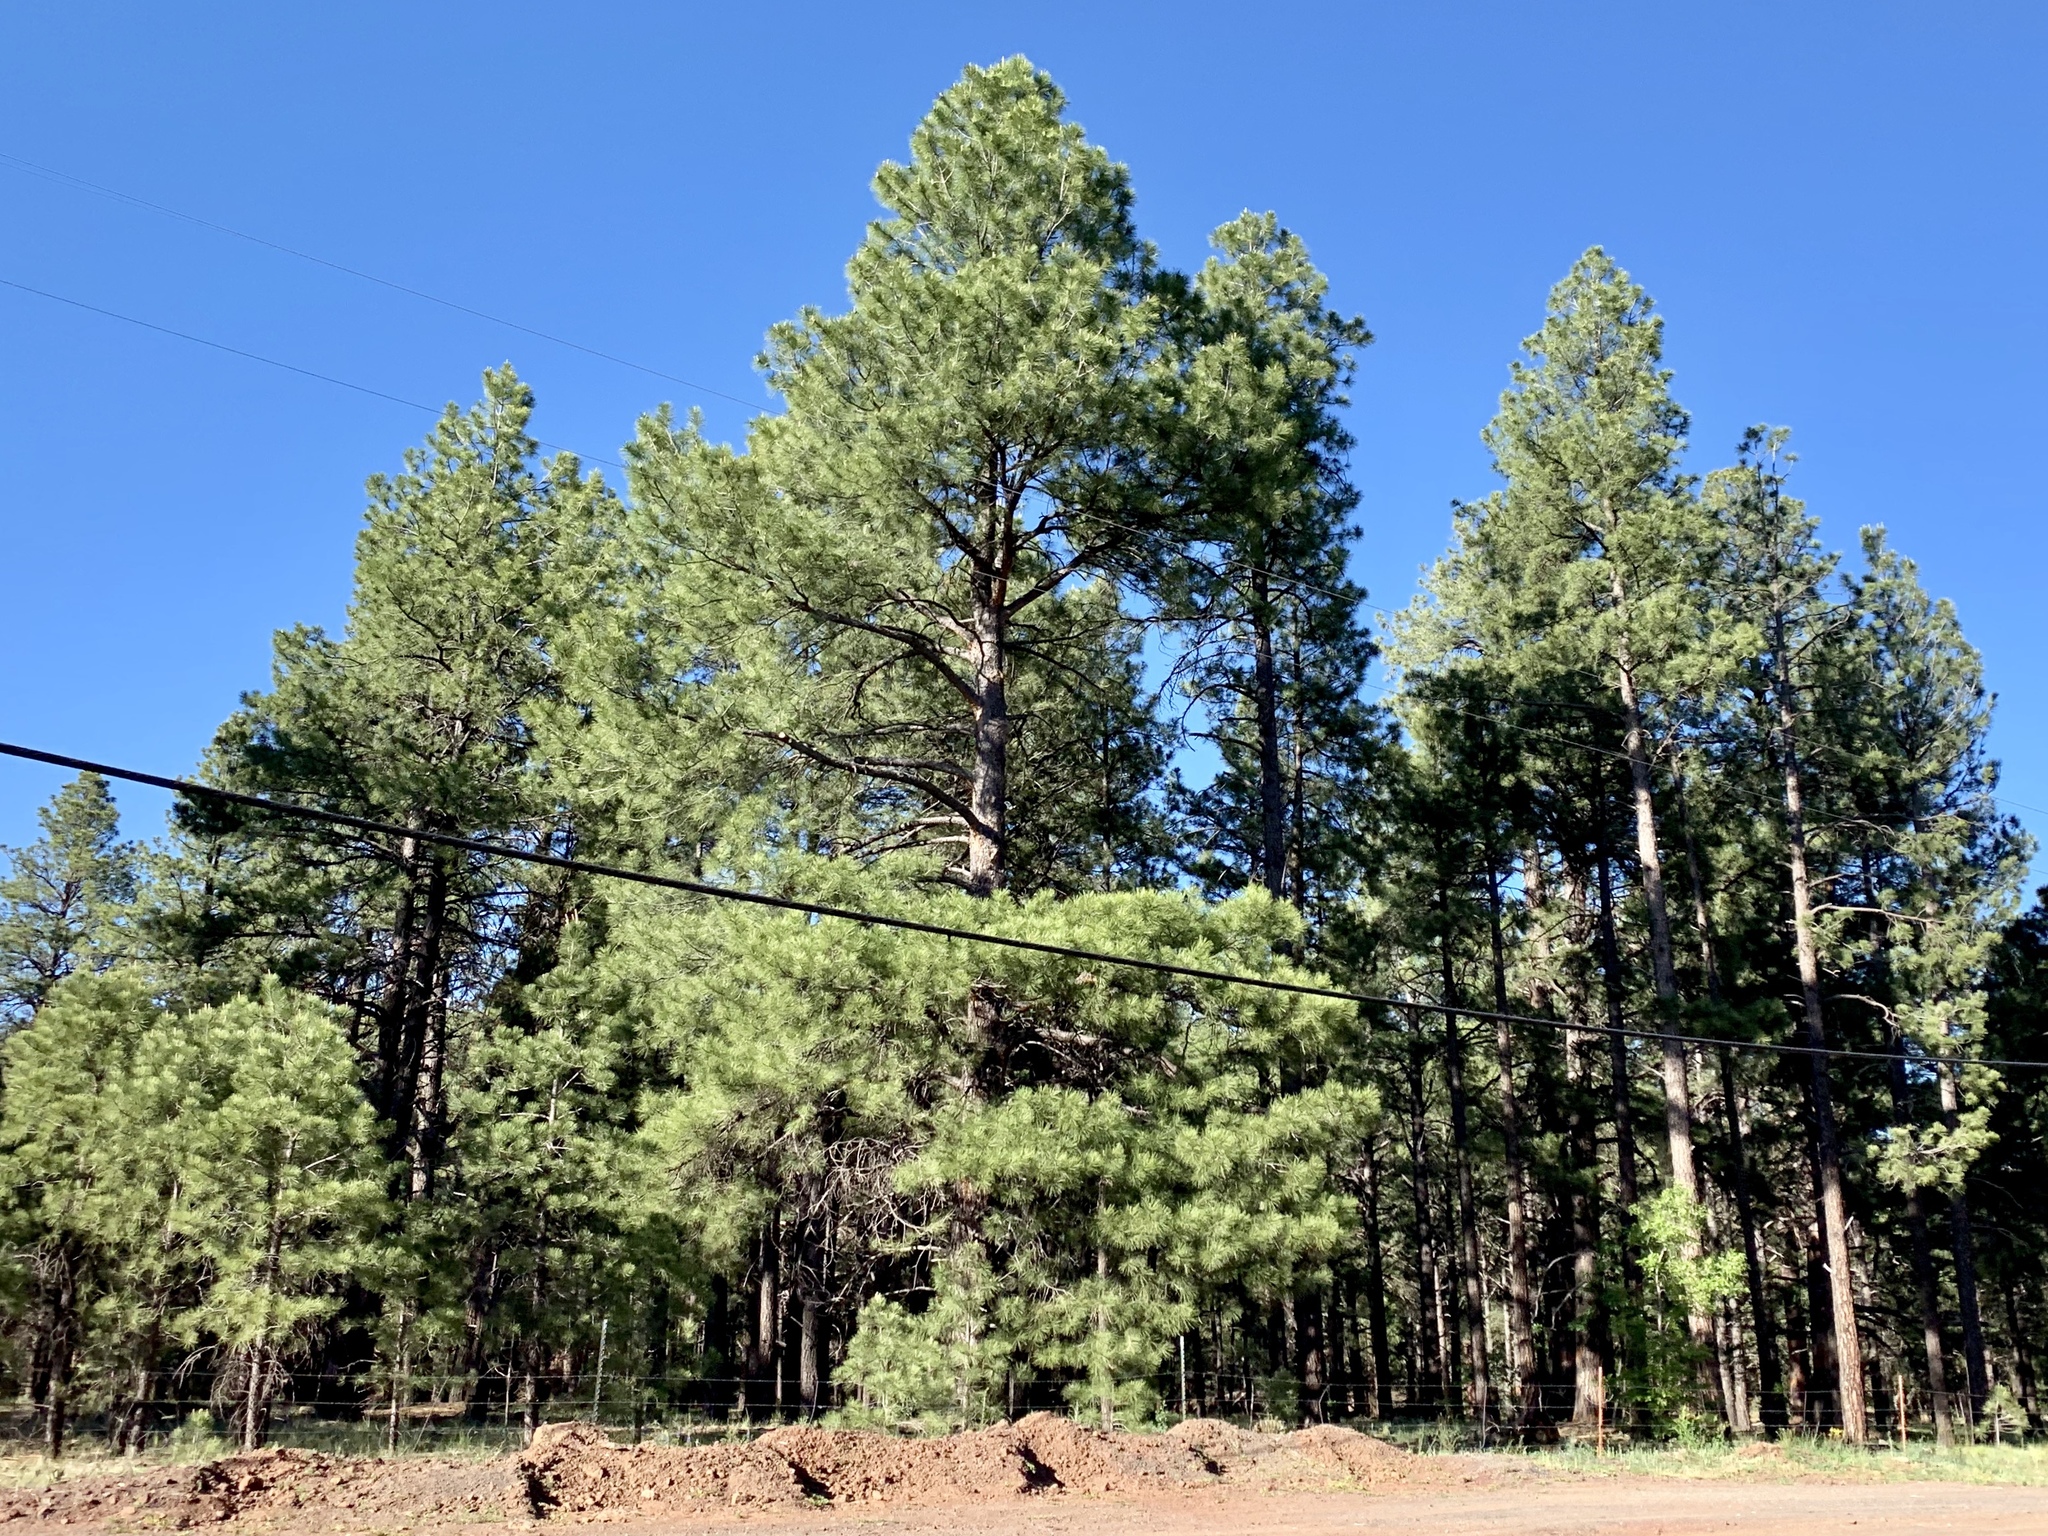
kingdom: Plantae
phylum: Tracheophyta
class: Pinopsida
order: Pinales
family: Pinaceae
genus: Pinus
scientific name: Pinus ponderosa
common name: Western yellow-pine
